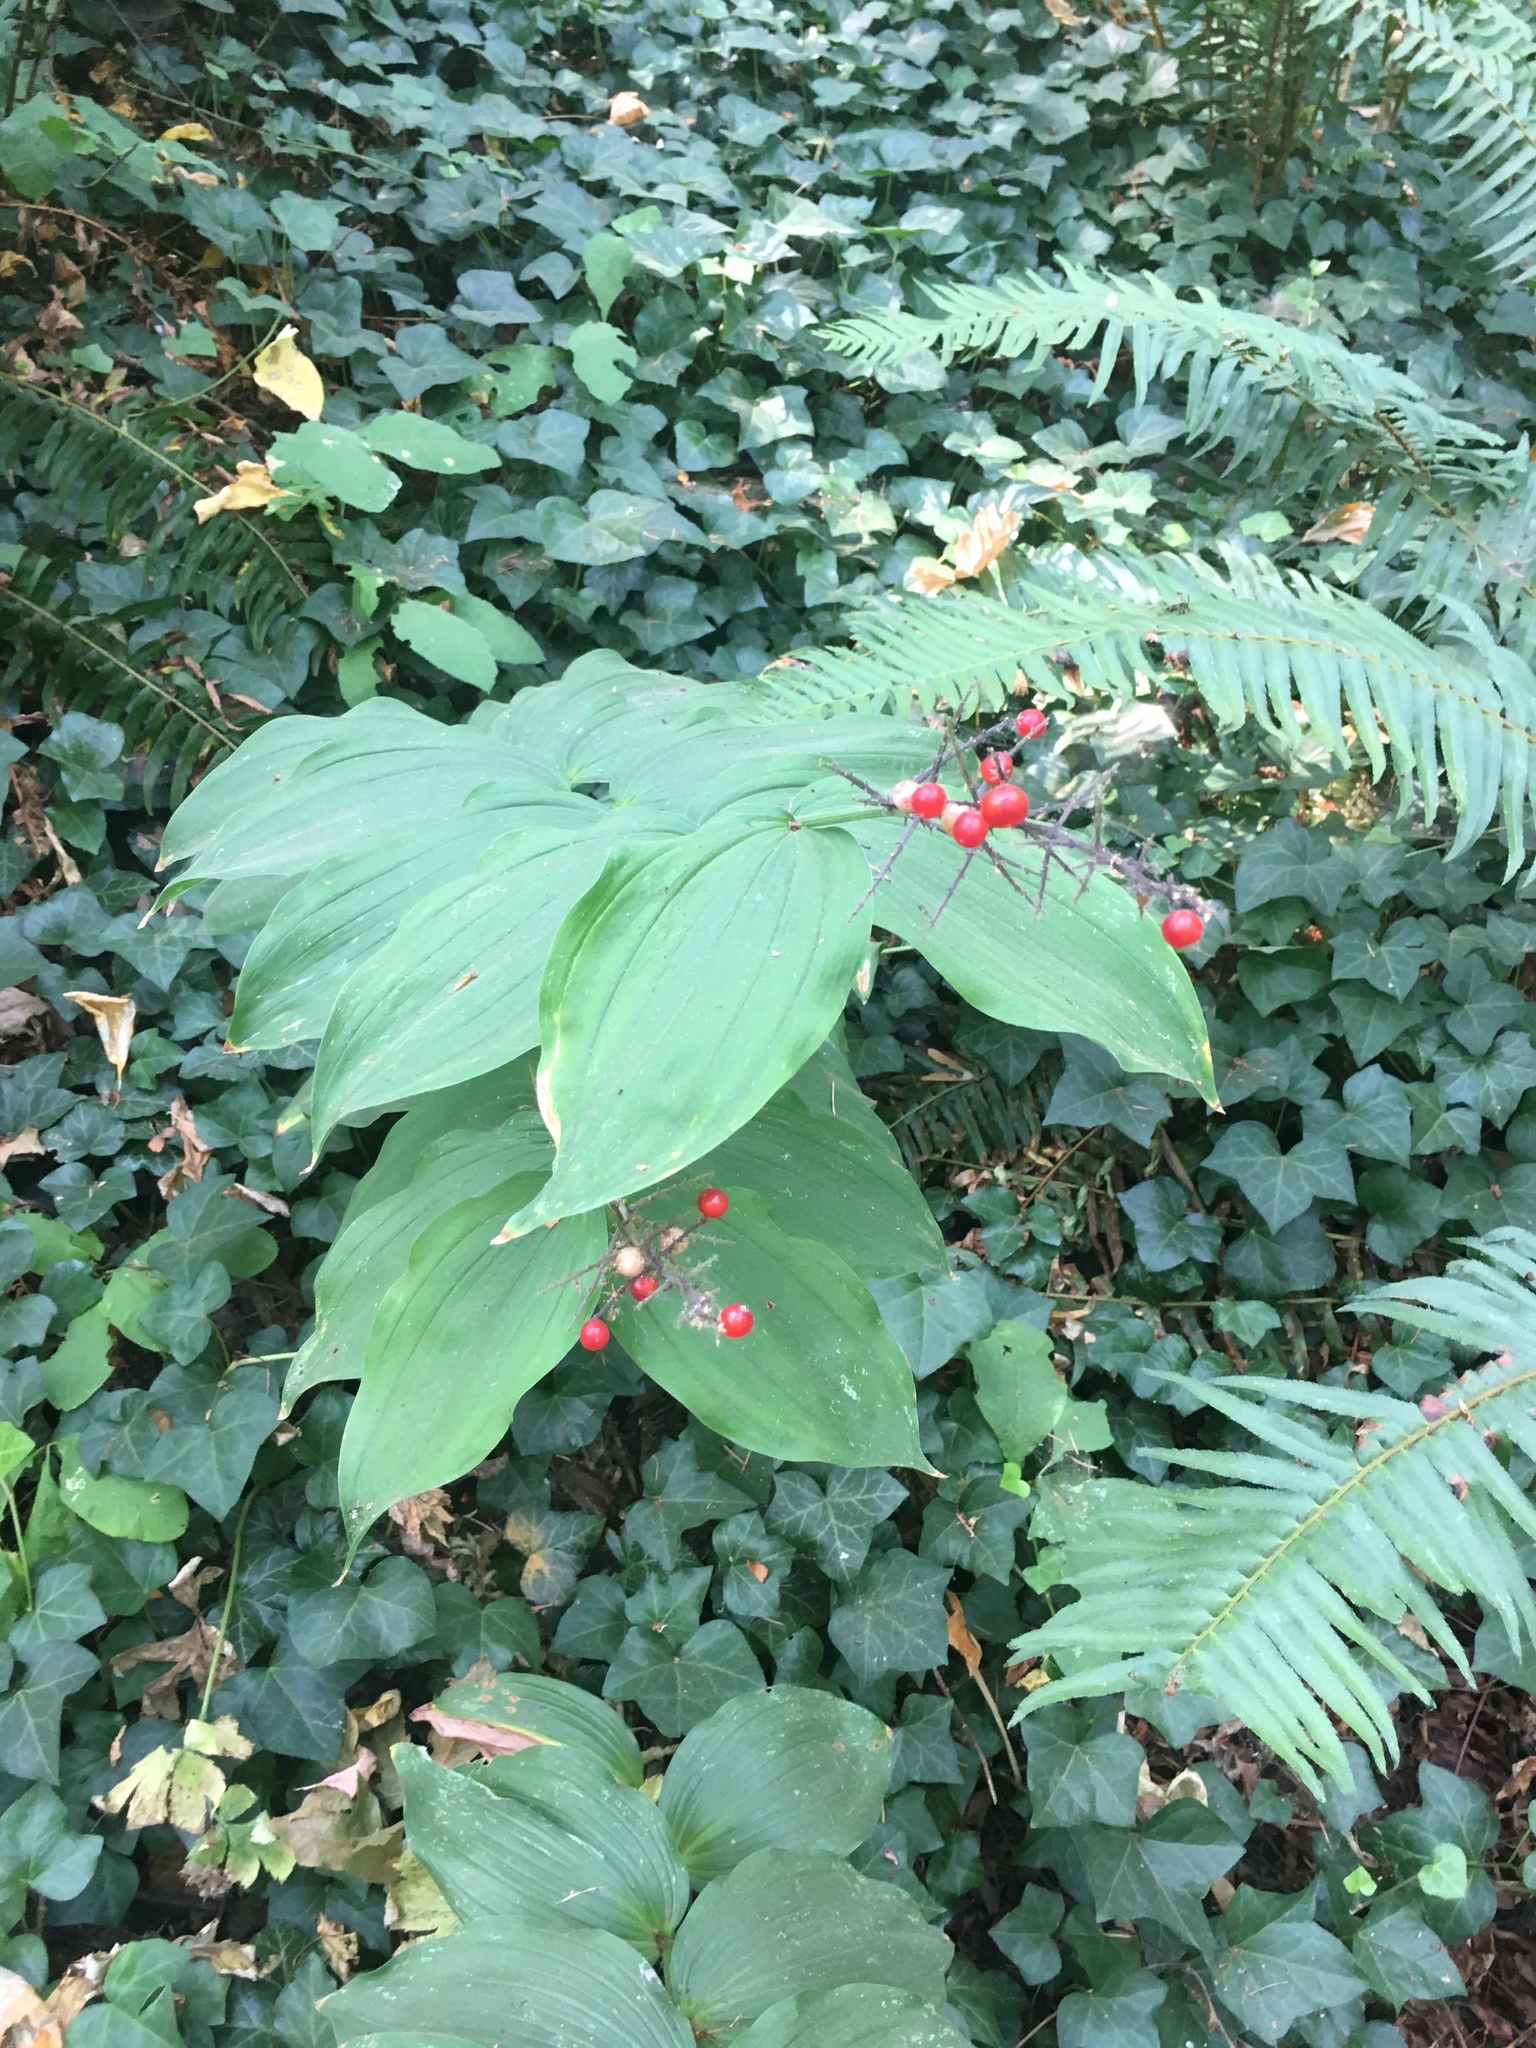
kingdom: Plantae
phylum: Tracheophyta
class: Liliopsida
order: Asparagales
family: Asparagaceae
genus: Maianthemum
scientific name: Maianthemum racemosum
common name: False spikenard
